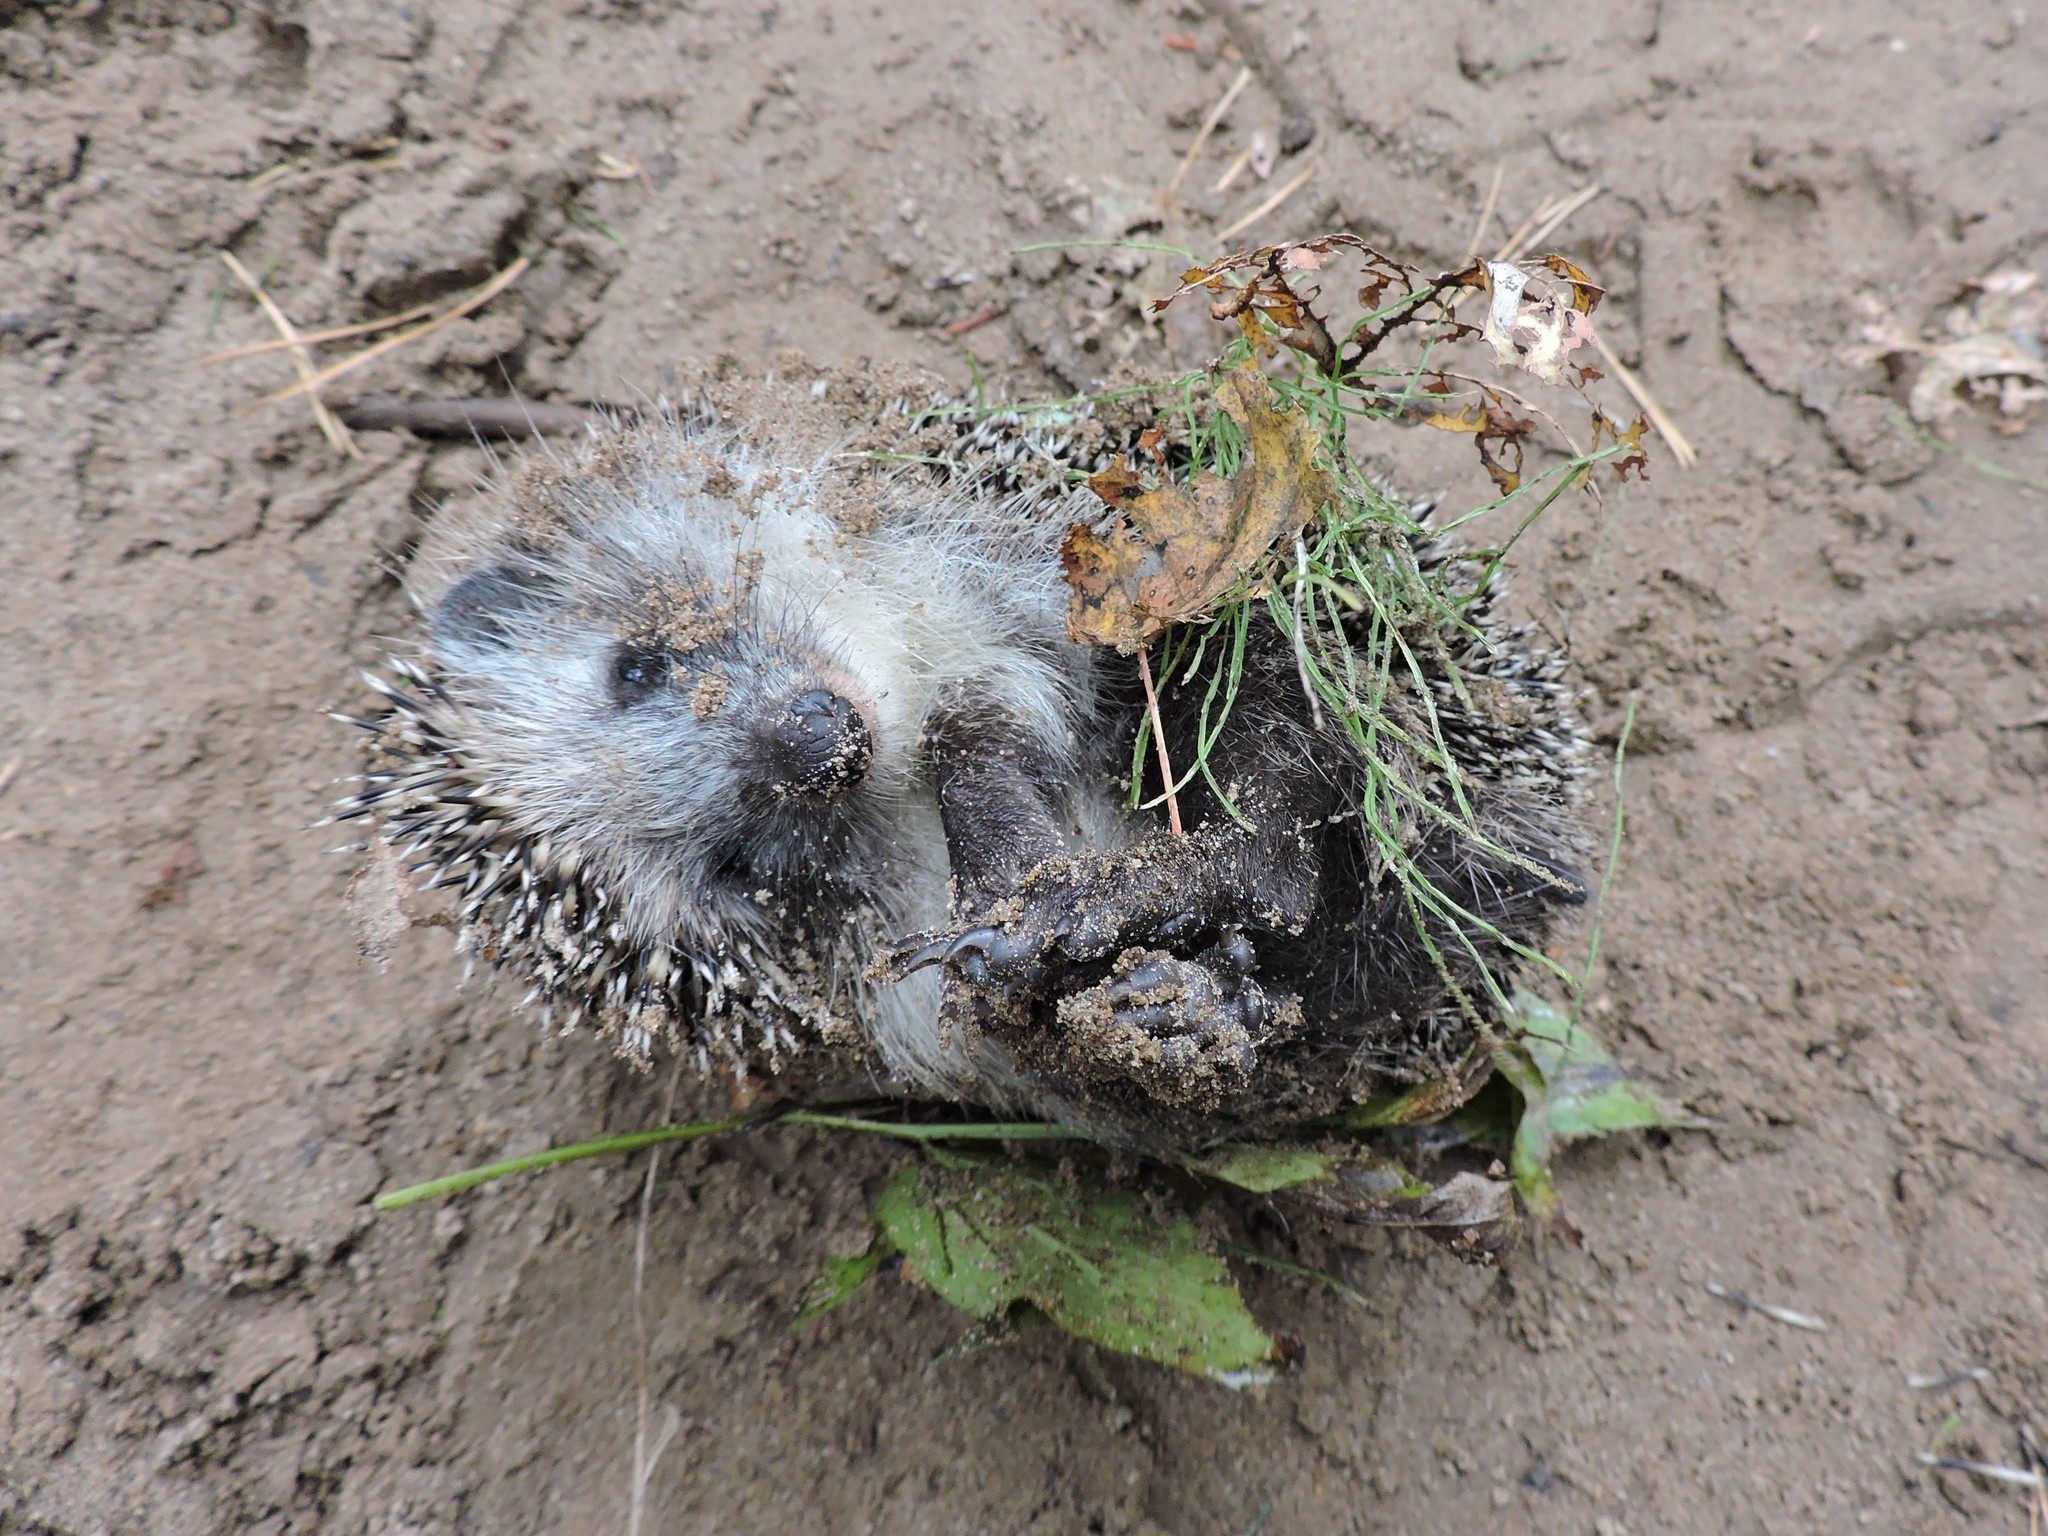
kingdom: Animalia
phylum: Chordata
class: Mammalia
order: Erinaceomorpha
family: Erinaceidae
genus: Erinaceus
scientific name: Erinaceus roumanicus
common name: Northern white-breasted hedgehog
